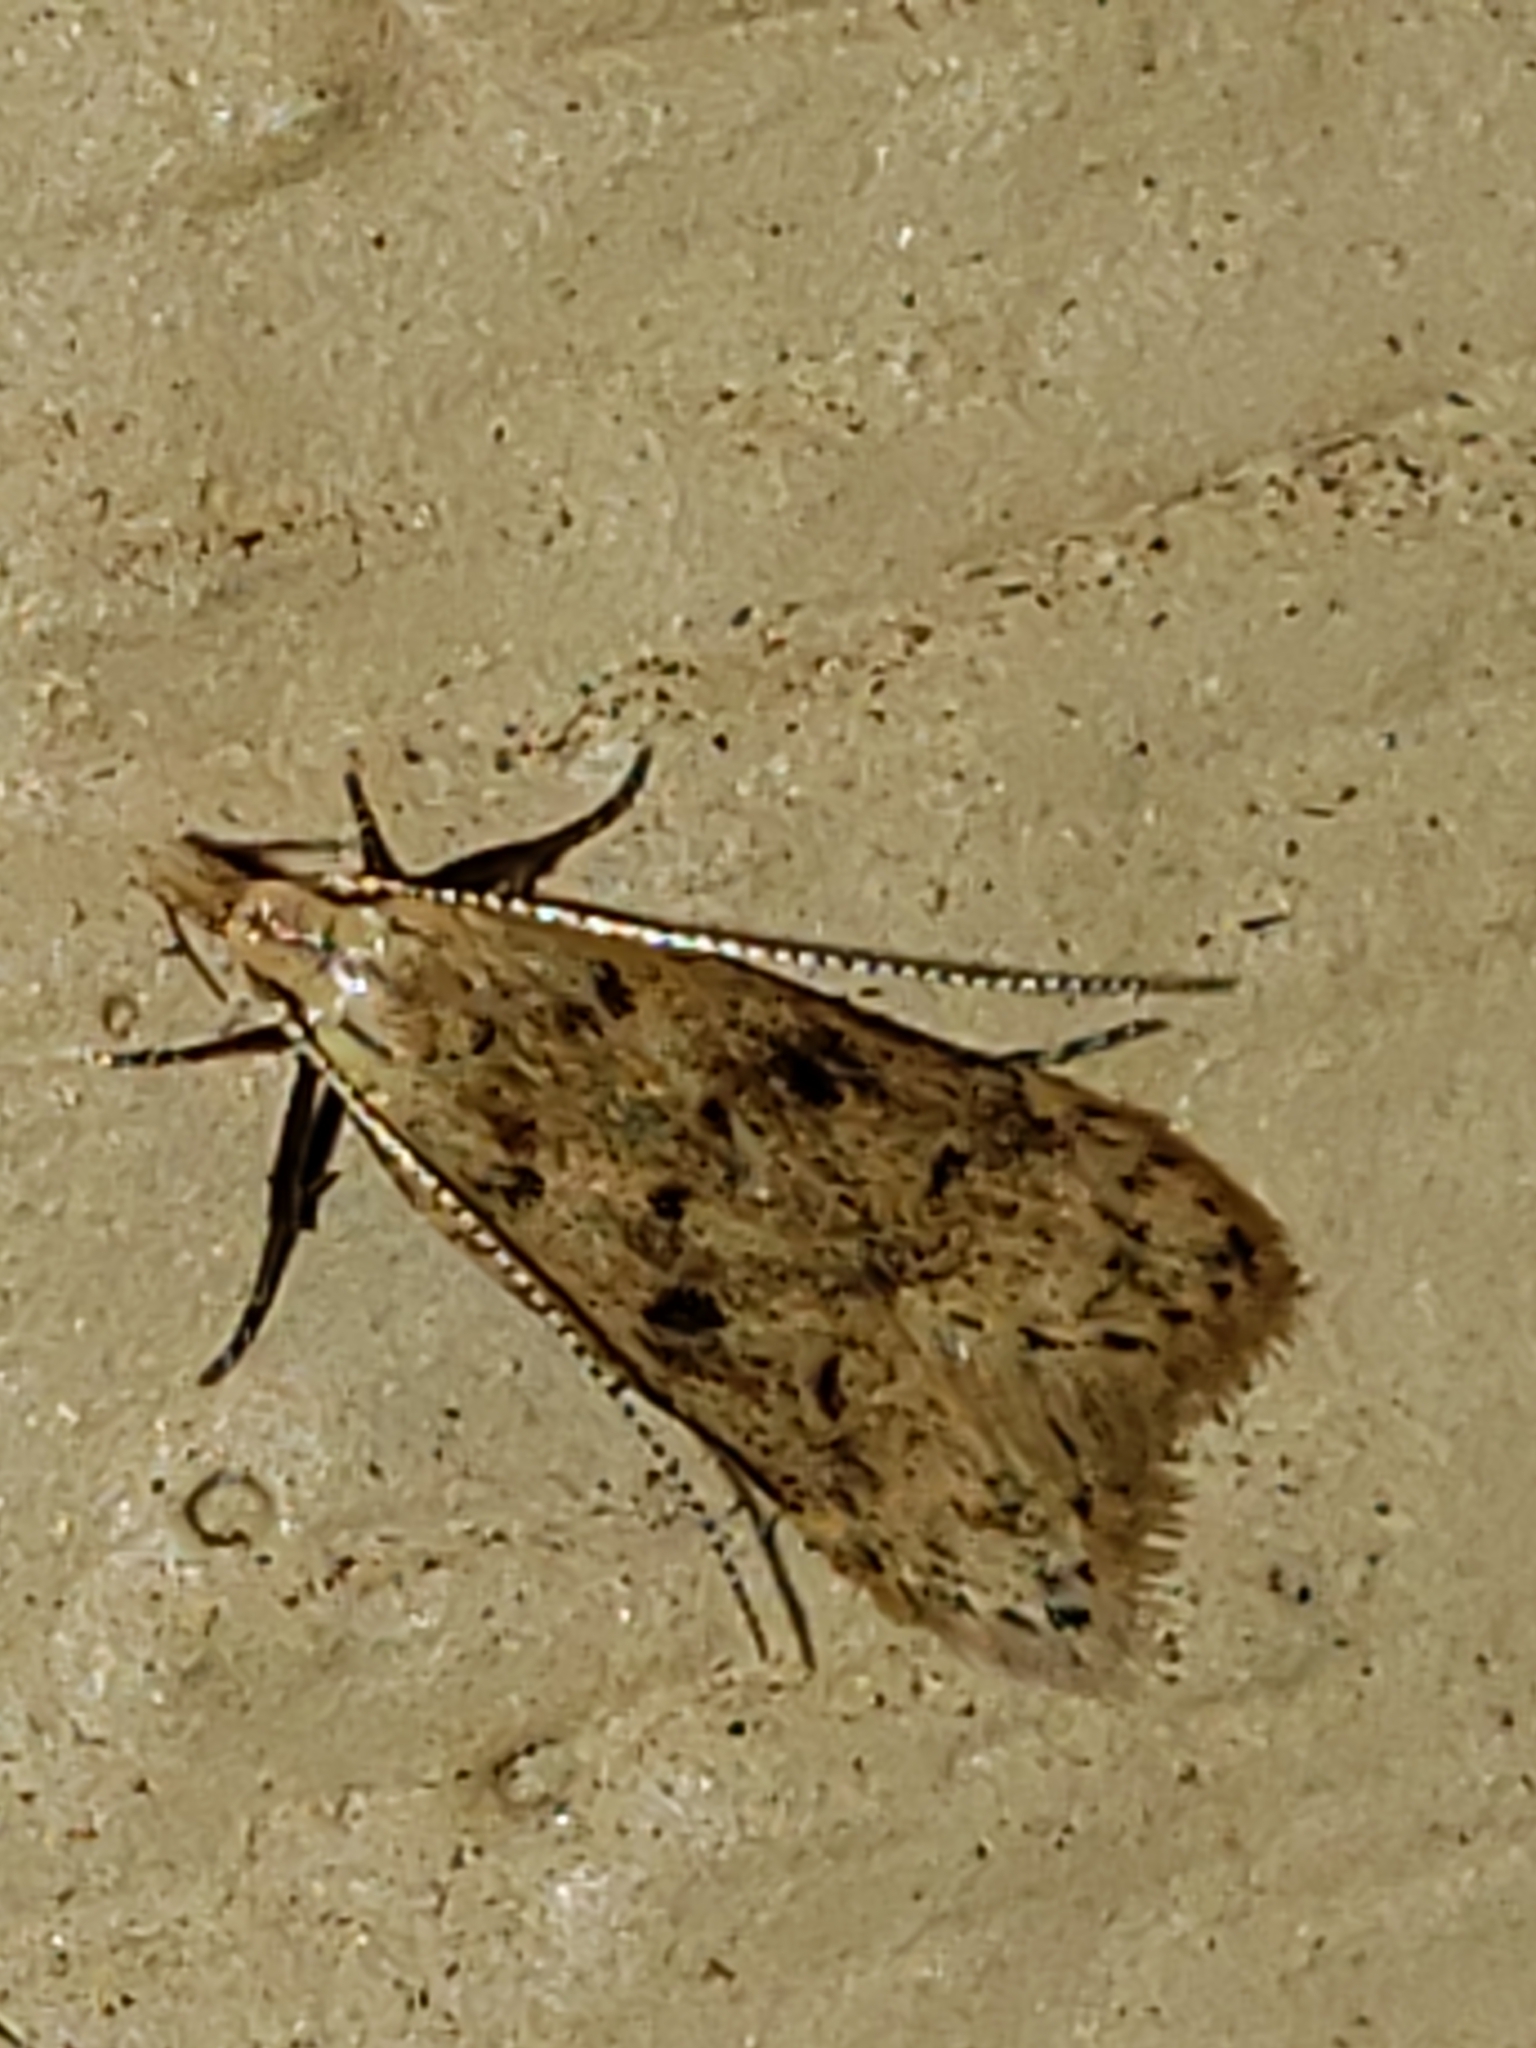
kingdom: Animalia
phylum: Arthropoda
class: Insecta
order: Lepidoptera
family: Gelechiidae
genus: Dichomeris
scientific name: Dichomeris punctipennella
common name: Many-spotted dichomeris moth
